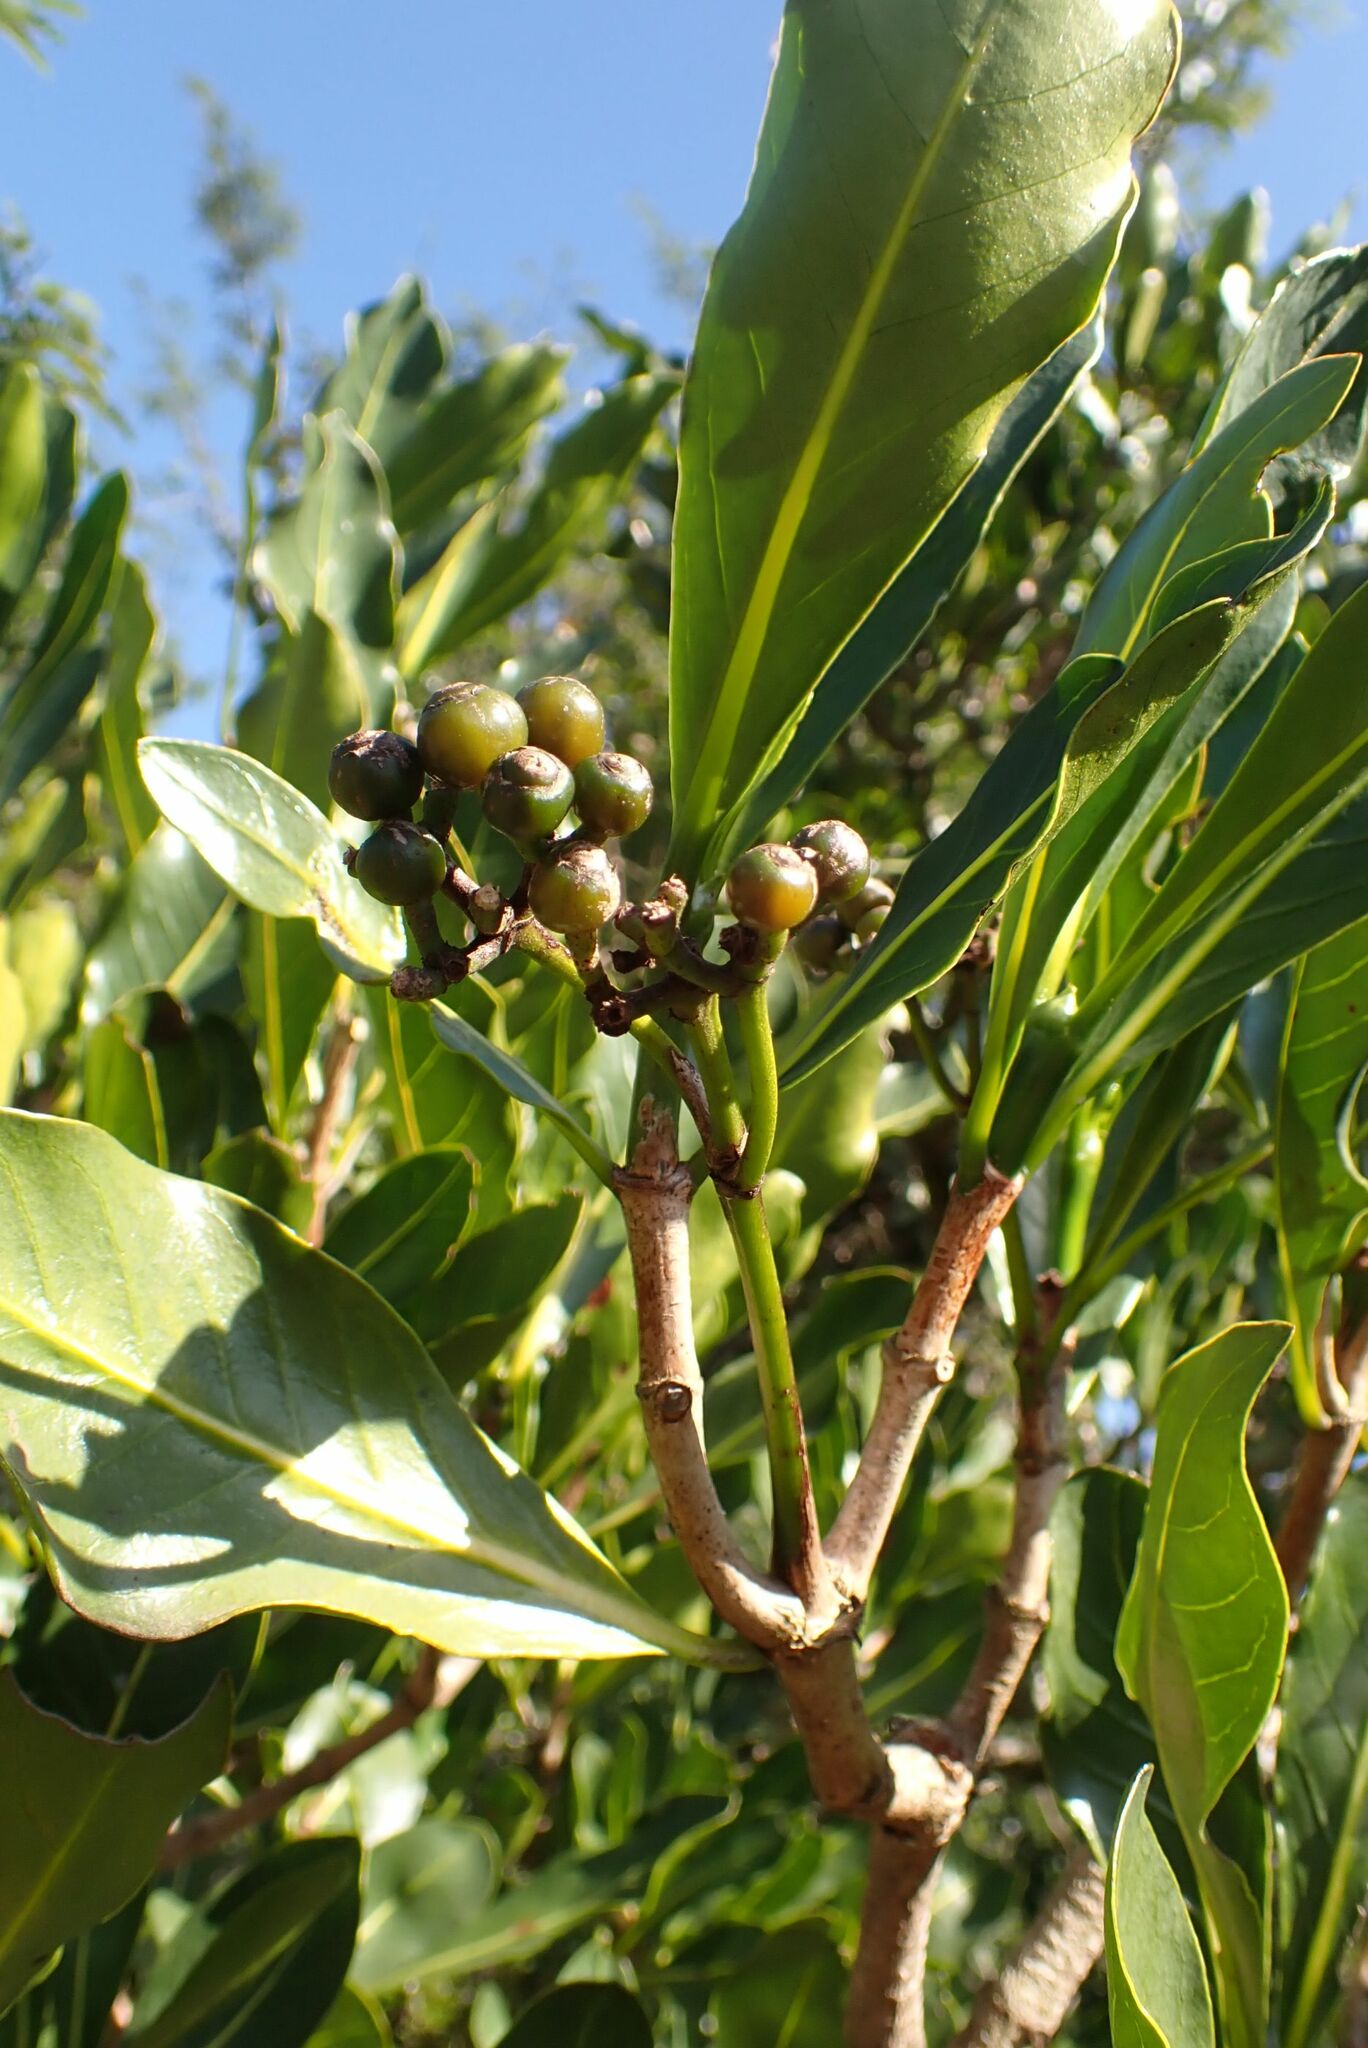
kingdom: Plantae
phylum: Tracheophyta
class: Magnoliopsida
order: Gentianales
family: Rubiaceae
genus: Psychotria
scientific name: Psychotria
